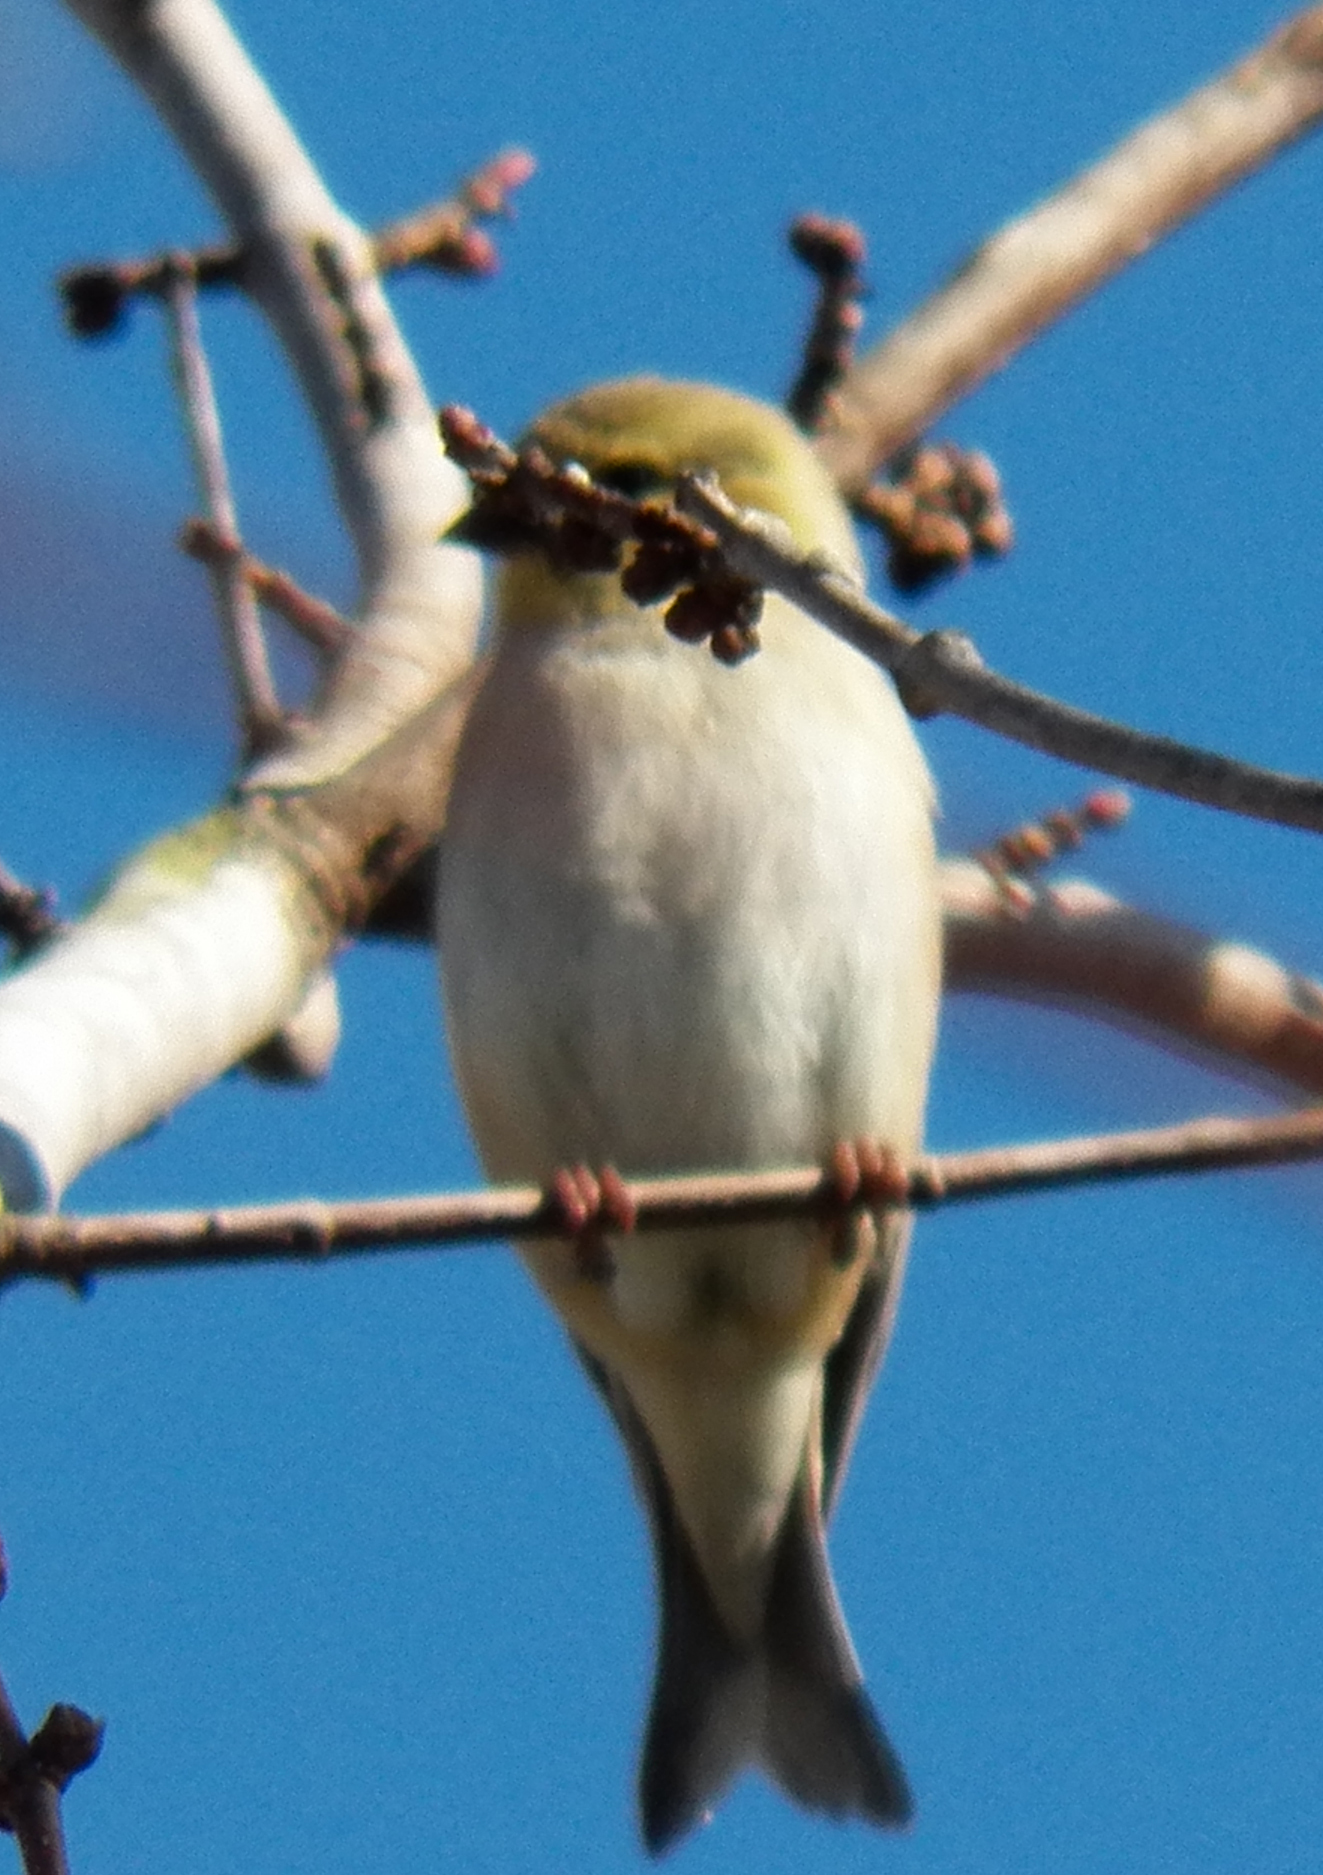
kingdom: Animalia
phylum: Chordata
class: Aves
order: Passeriformes
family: Fringillidae
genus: Spinus
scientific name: Spinus tristis
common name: American goldfinch
